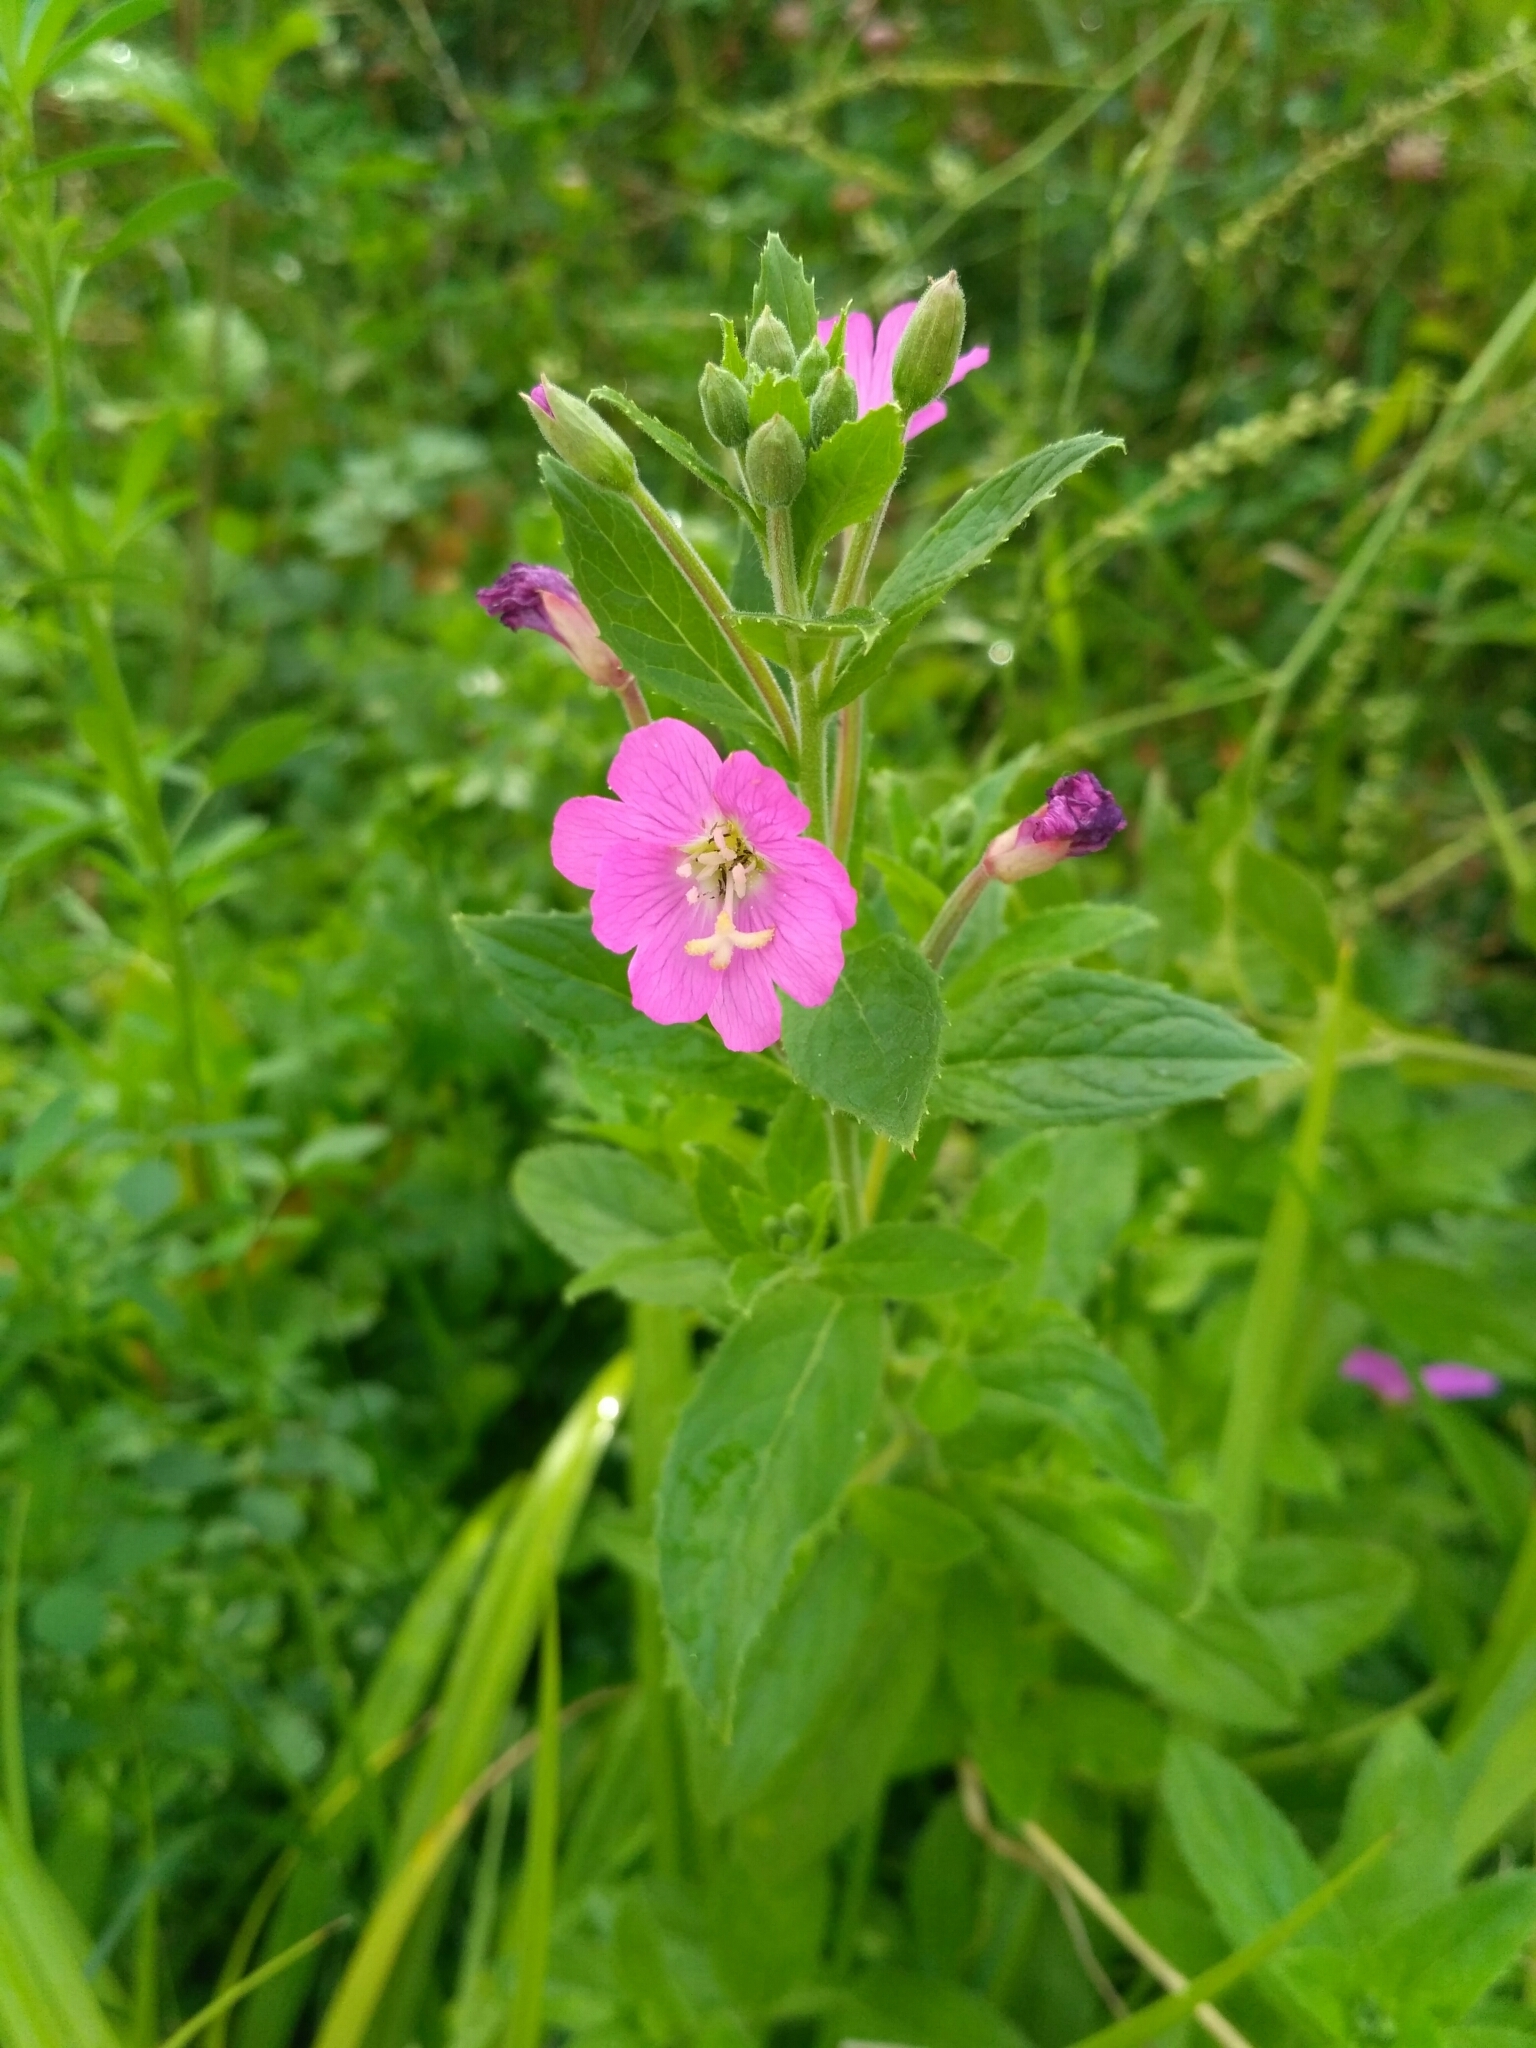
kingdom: Plantae
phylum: Tracheophyta
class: Magnoliopsida
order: Myrtales
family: Onagraceae
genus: Epilobium
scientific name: Epilobium hirsutum
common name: Great willowherb
